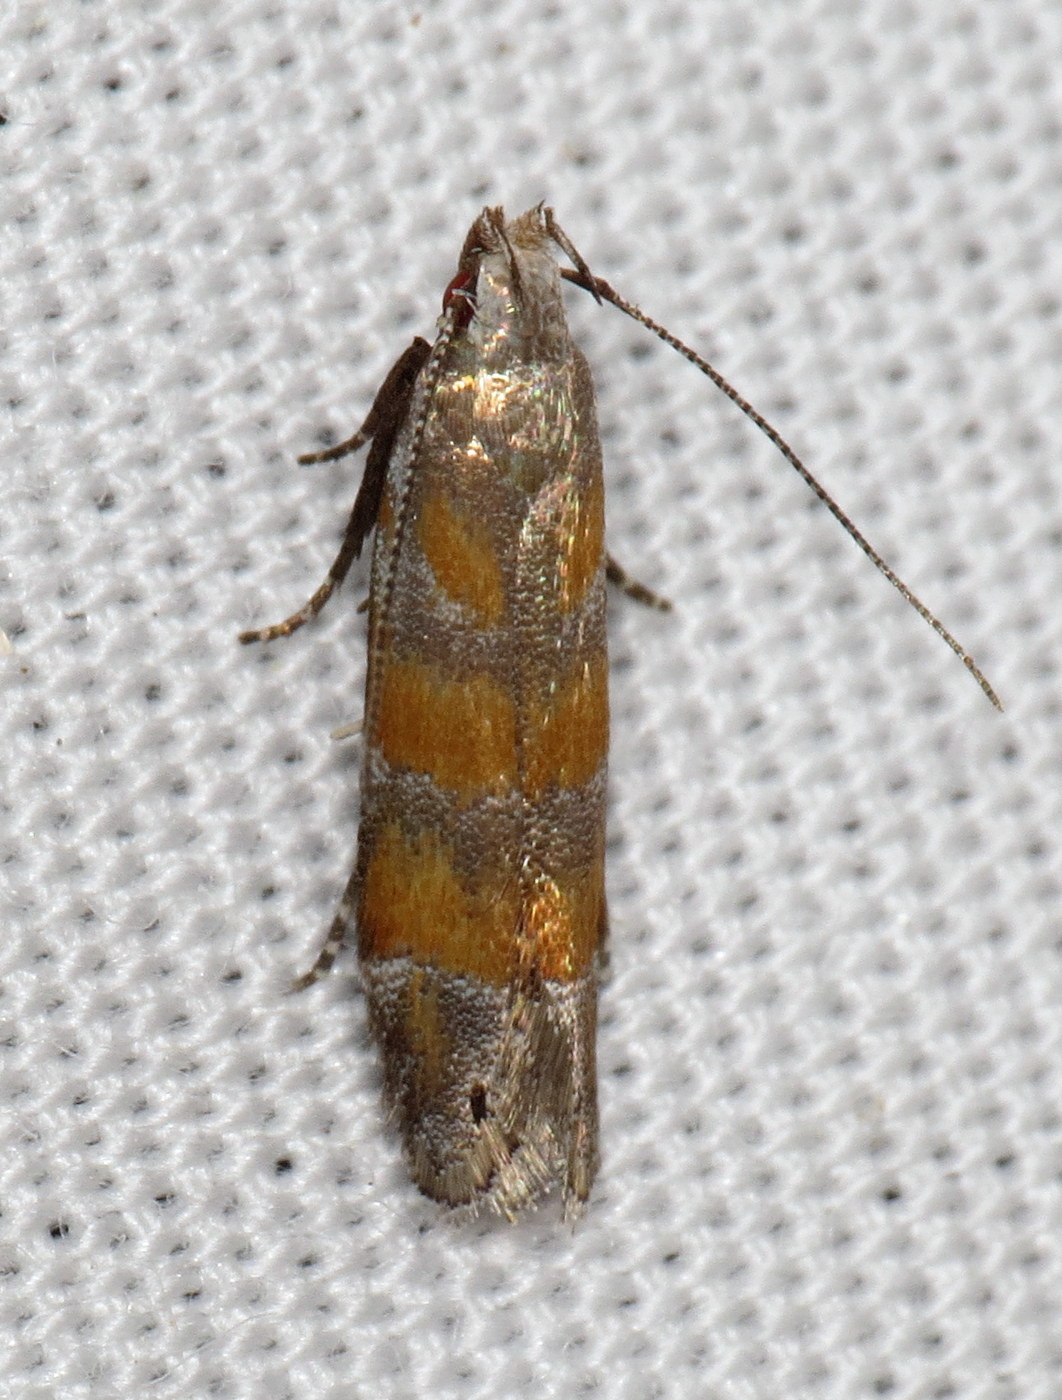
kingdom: Animalia
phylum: Arthropoda
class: Insecta
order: Lepidoptera
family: Gelechiidae
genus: Battaristis
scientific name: Battaristis vittella
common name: Orange stripe-backed moth
